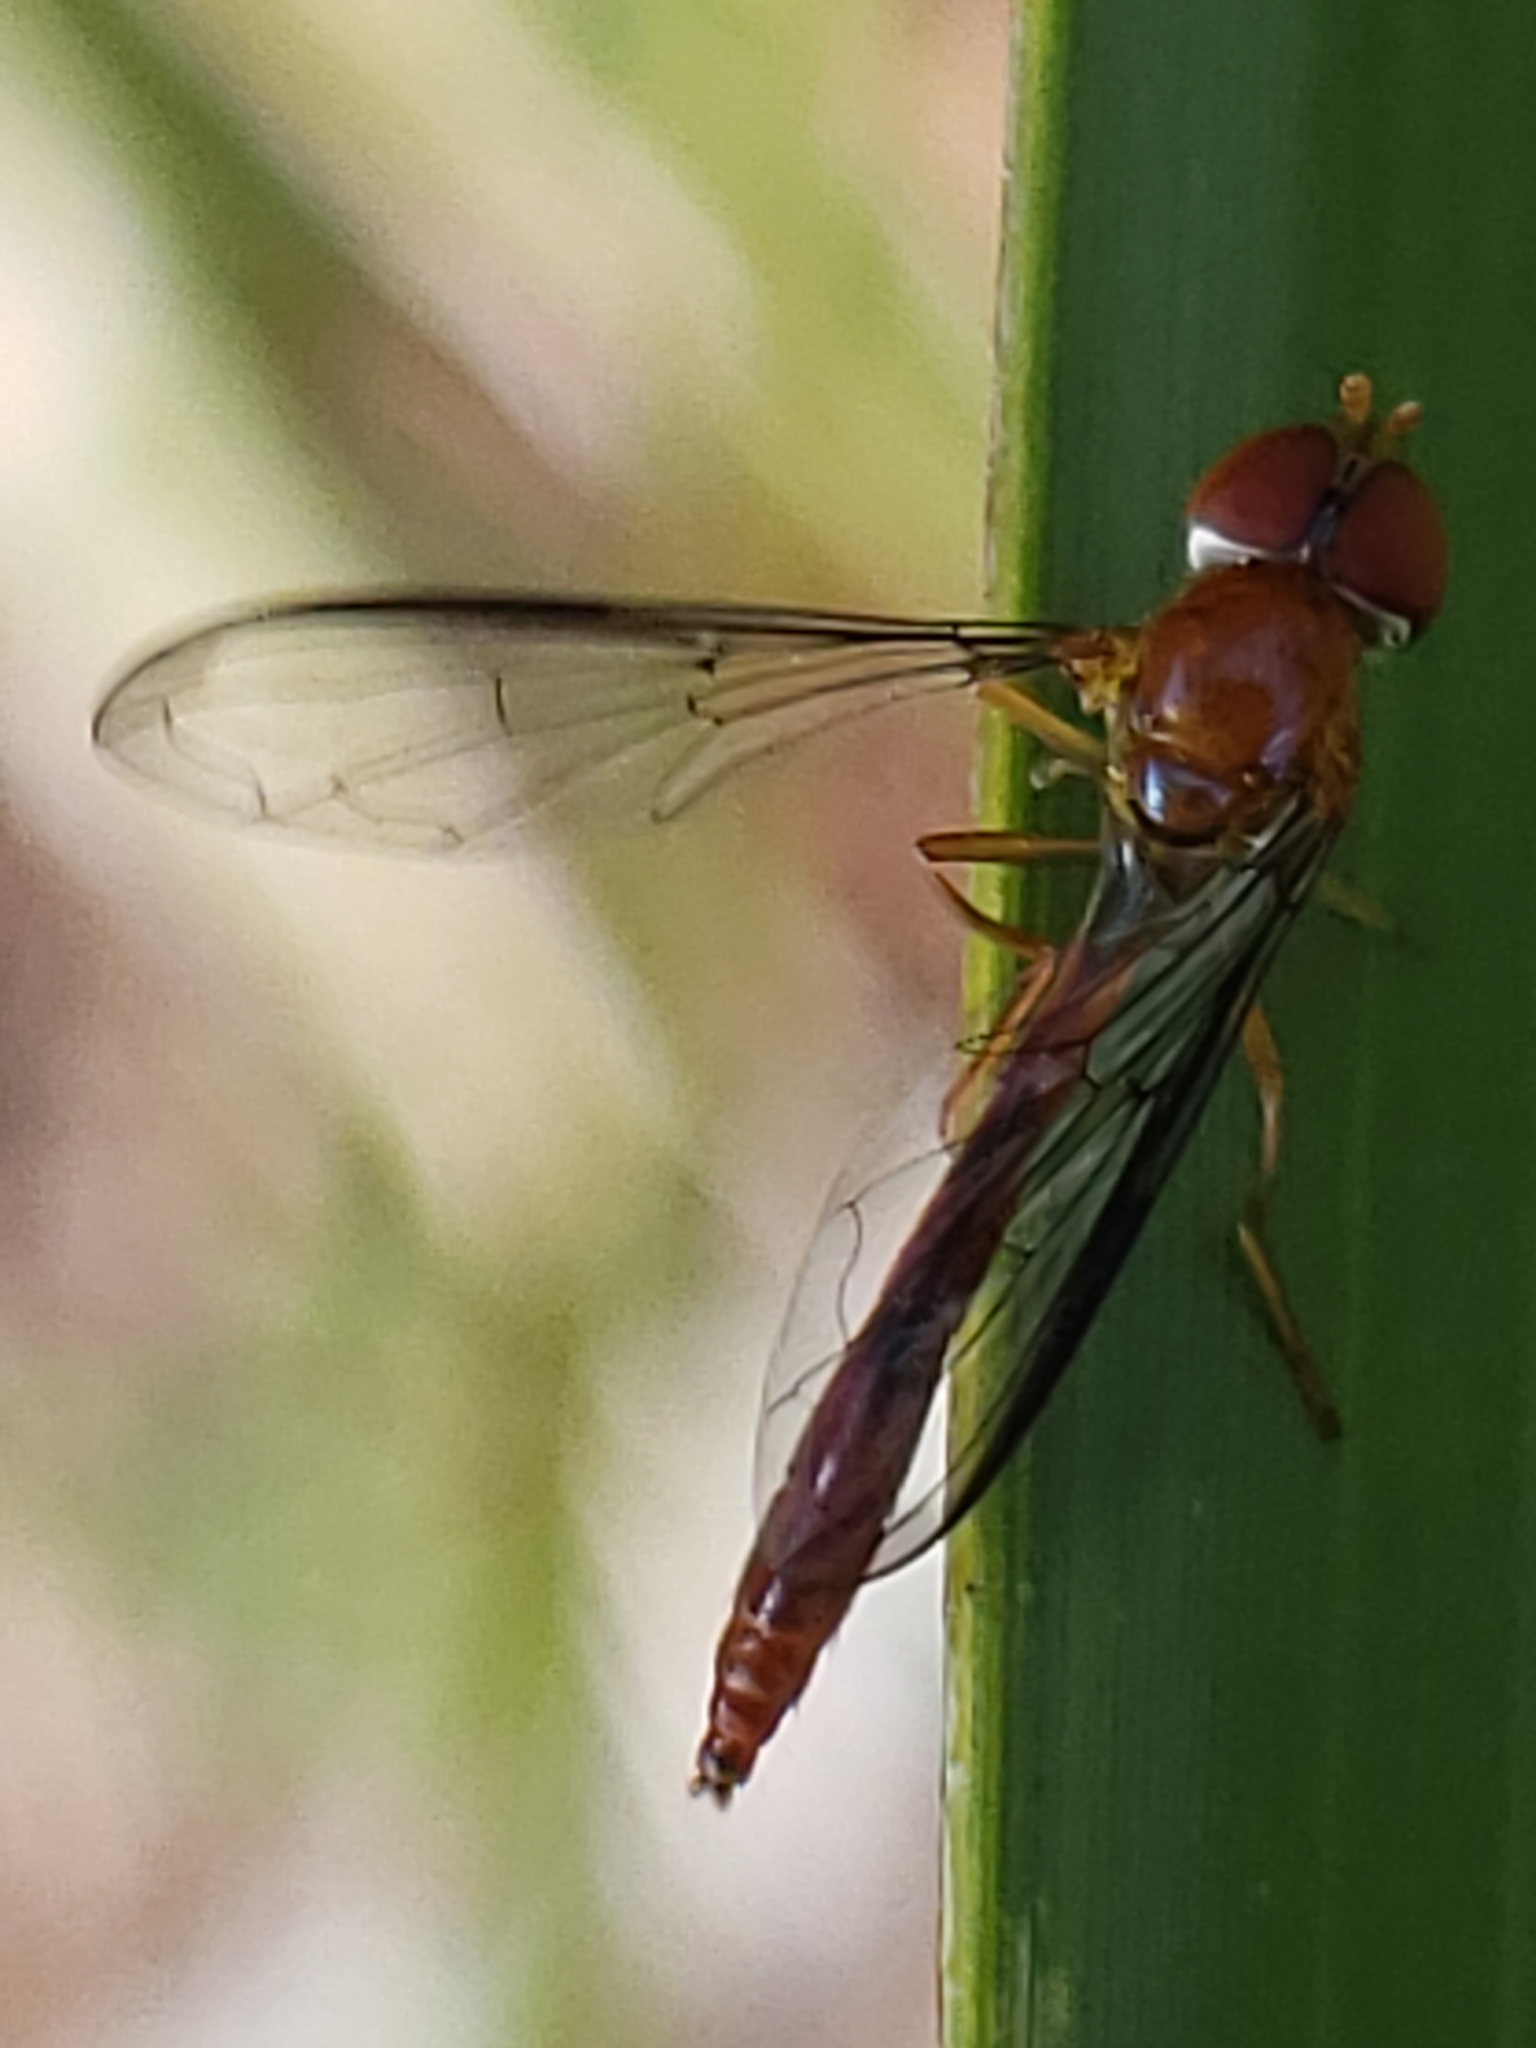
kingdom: Animalia
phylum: Arthropoda
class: Insecta
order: Diptera
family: Syrphidae
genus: Victoriana
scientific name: Victoriana parvicornis
